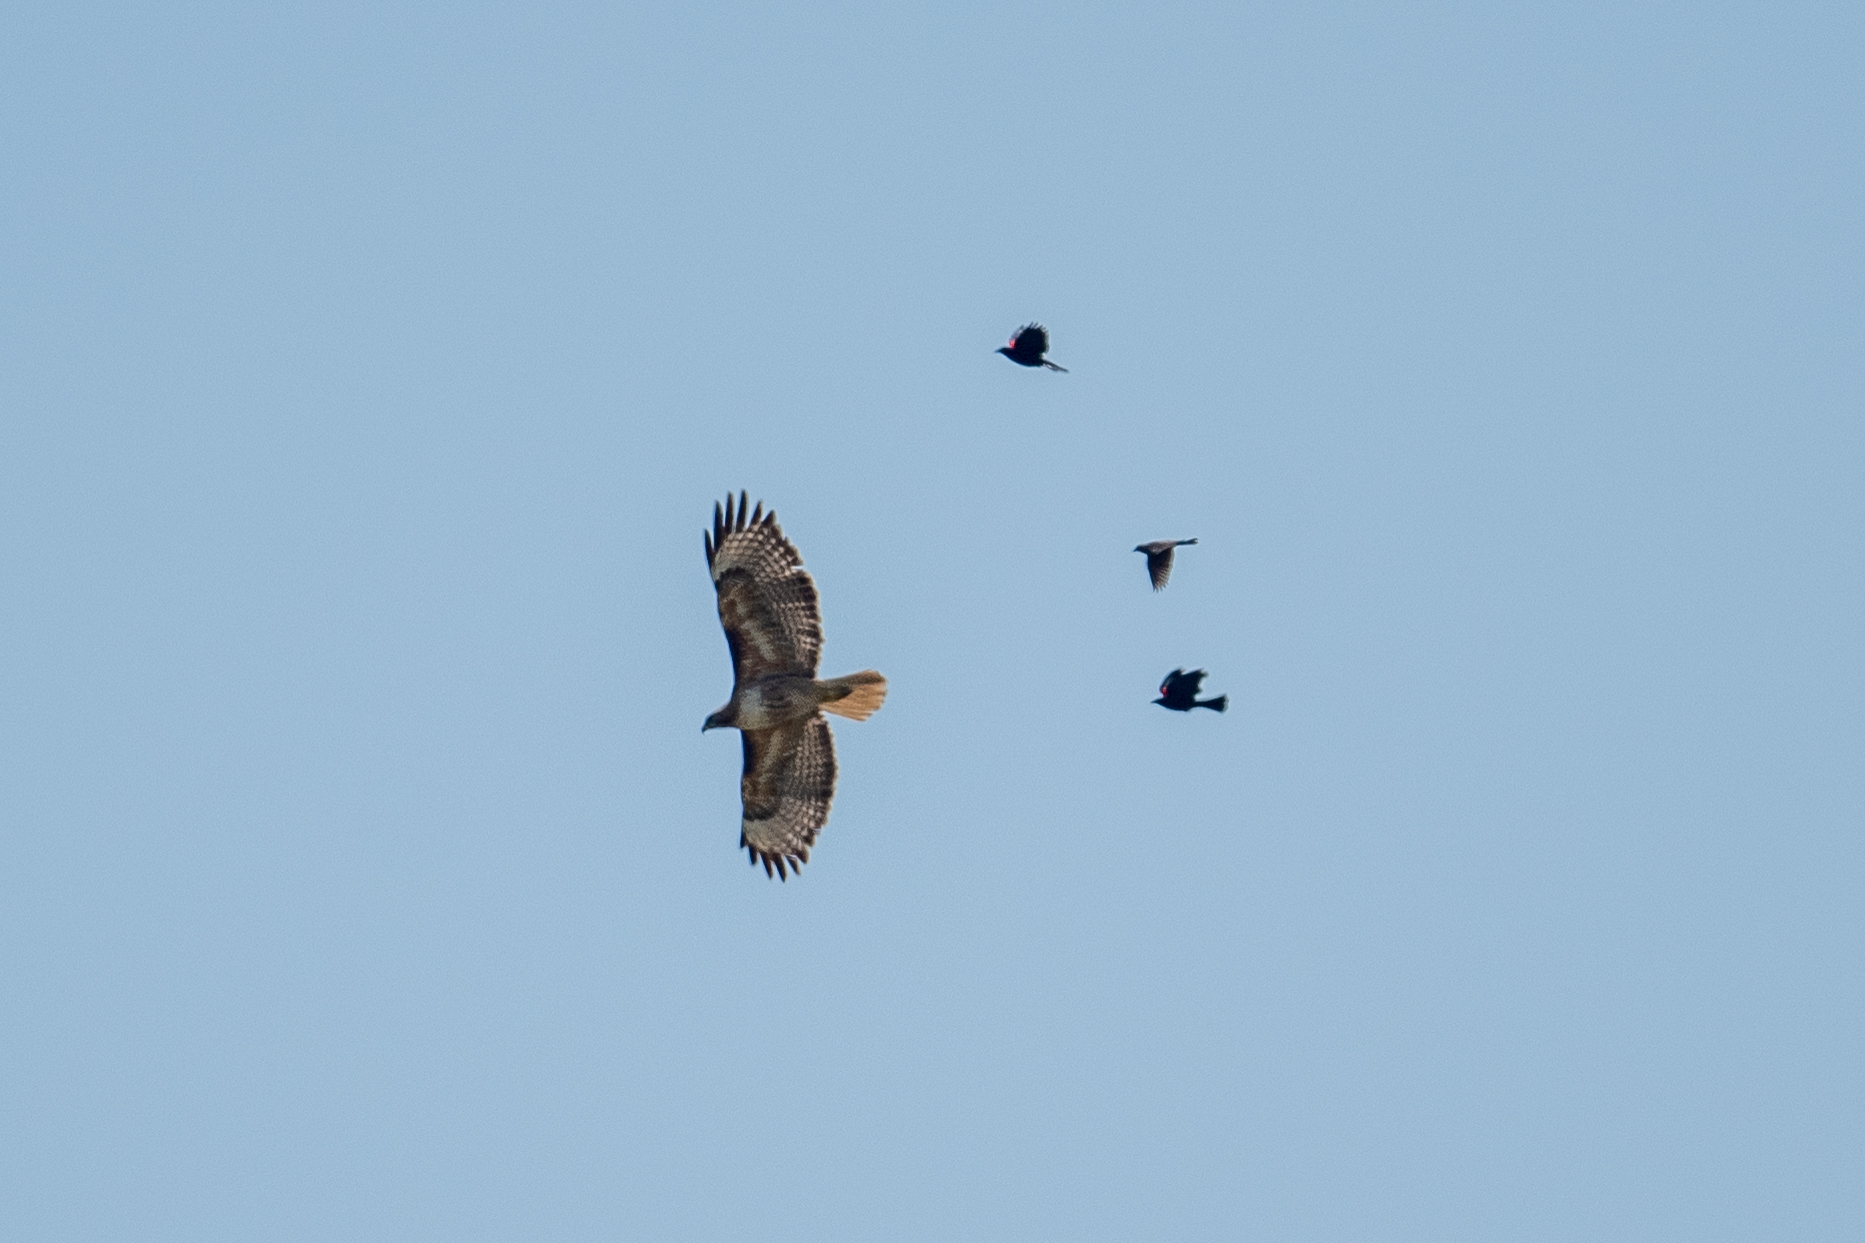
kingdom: Animalia
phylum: Chordata
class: Aves
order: Accipitriformes
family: Accipitridae
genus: Buteo
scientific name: Buteo jamaicensis
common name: Red-tailed hawk
